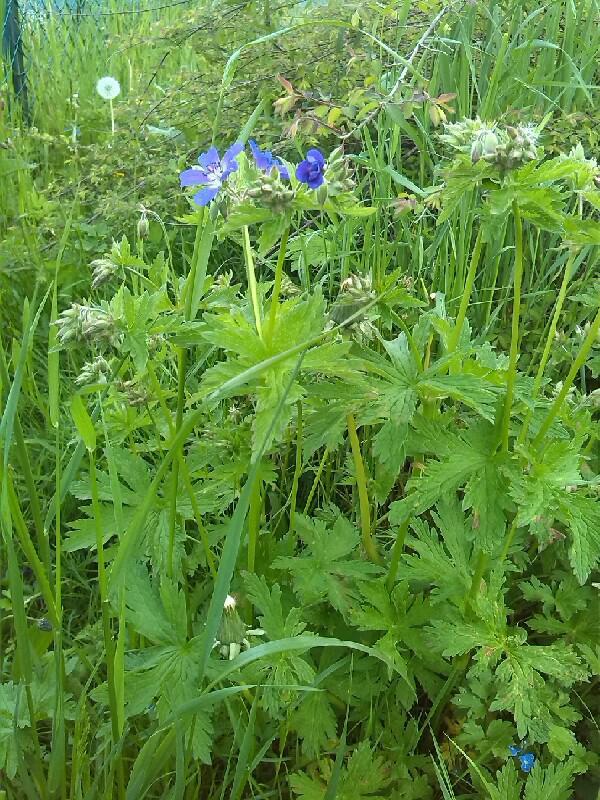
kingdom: Plantae
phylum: Tracheophyta
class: Magnoliopsida
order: Geraniales
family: Geraniaceae
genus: Geranium
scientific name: Geranium pratense
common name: Meadow crane's-bill
